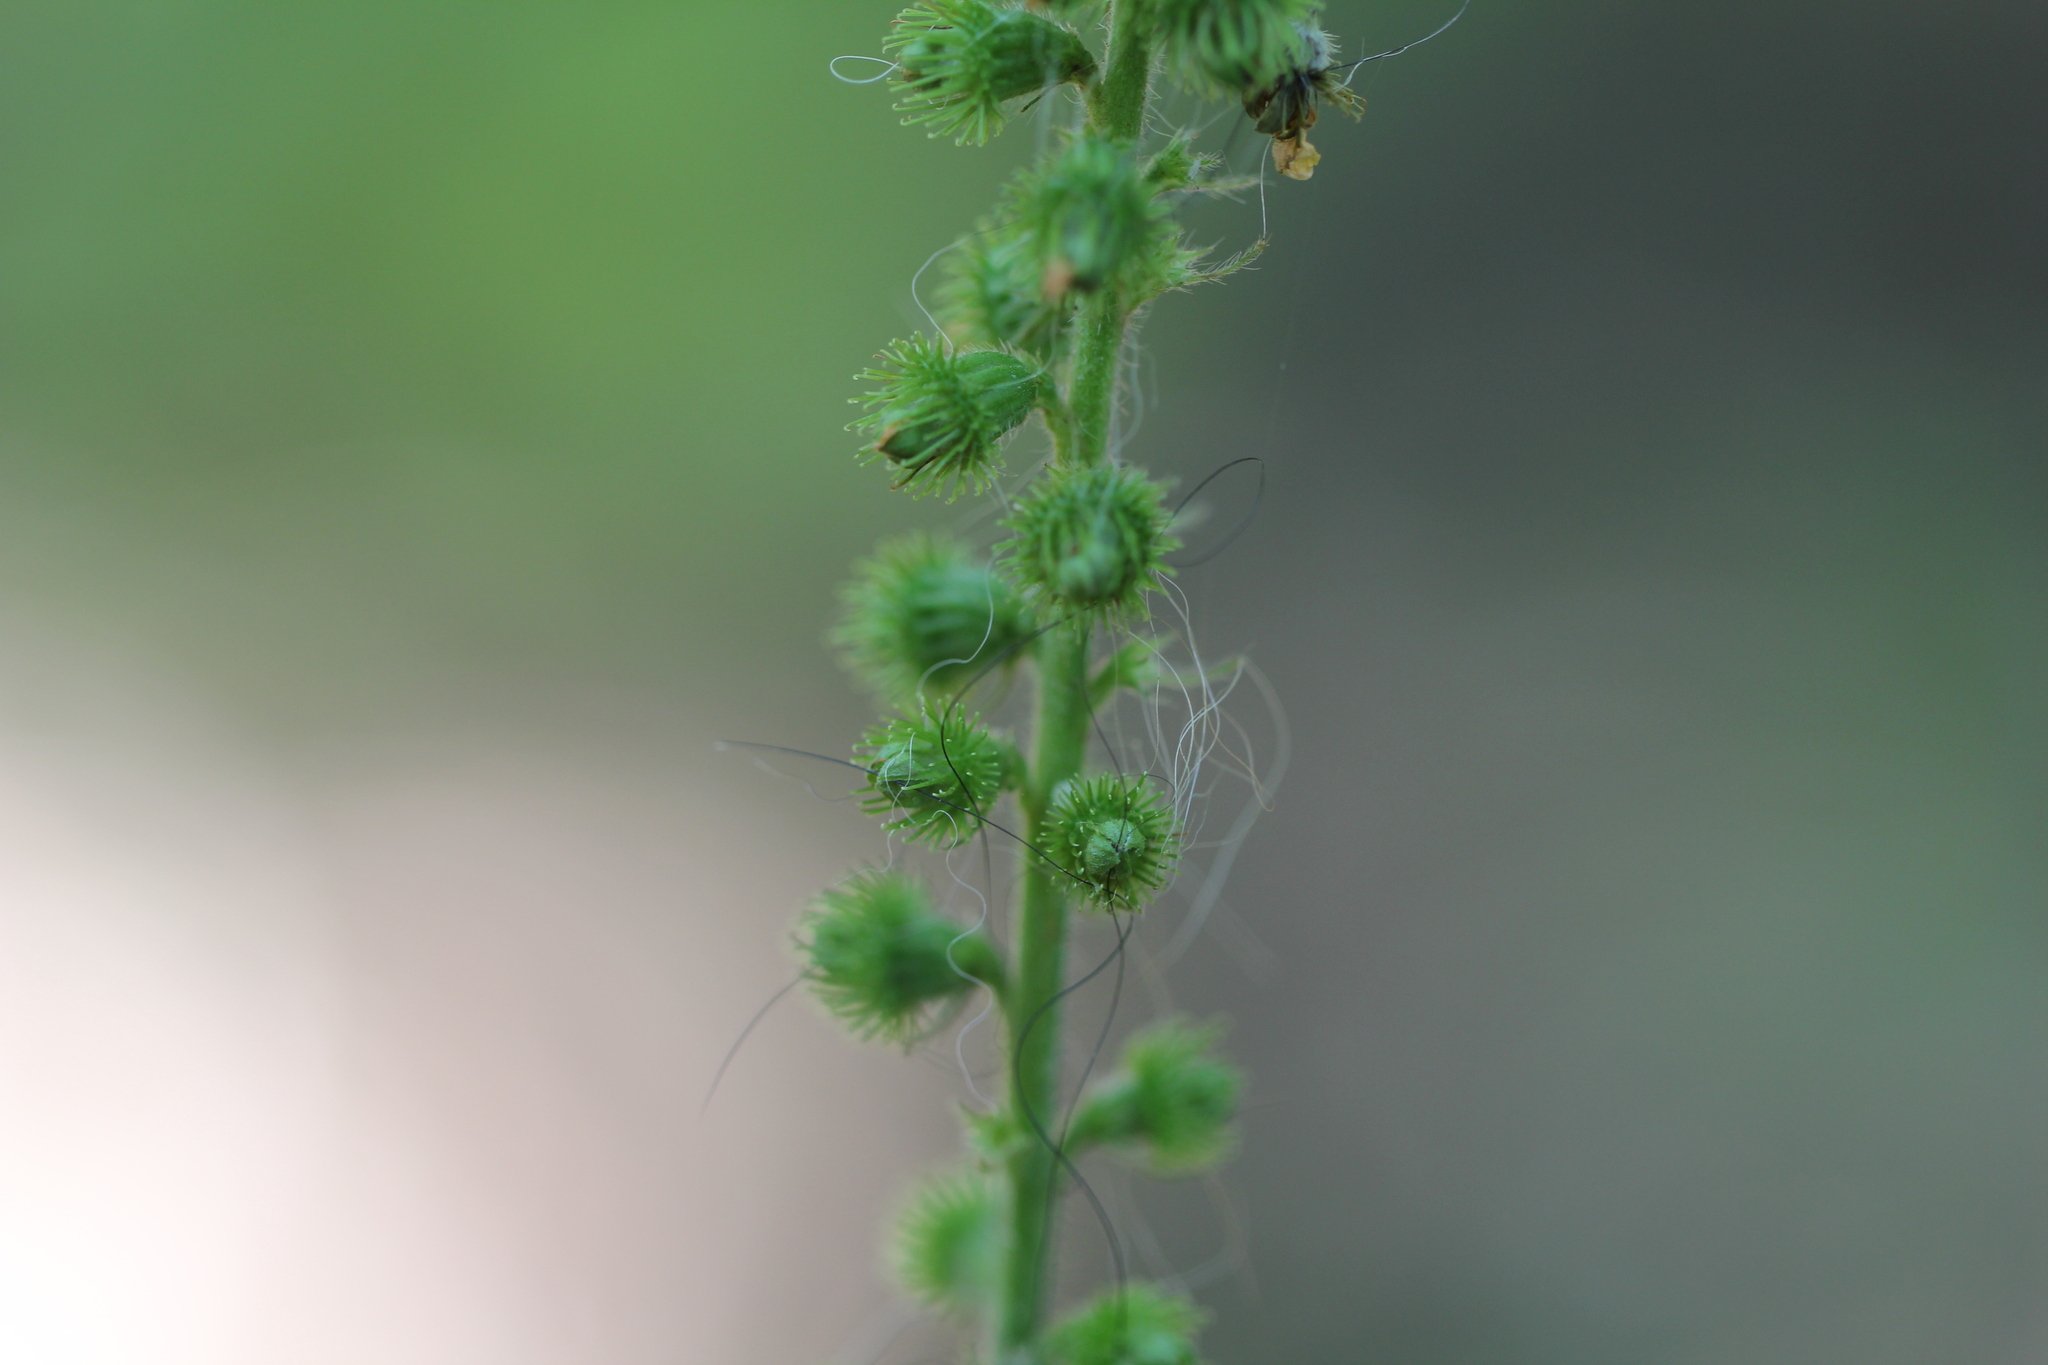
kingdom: Plantae
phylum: Tracheophyta
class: Magnoliopsida
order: Rosales
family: Rosaceae
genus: Agrimonia
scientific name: Agrimonia eupatoria
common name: Agrimony
